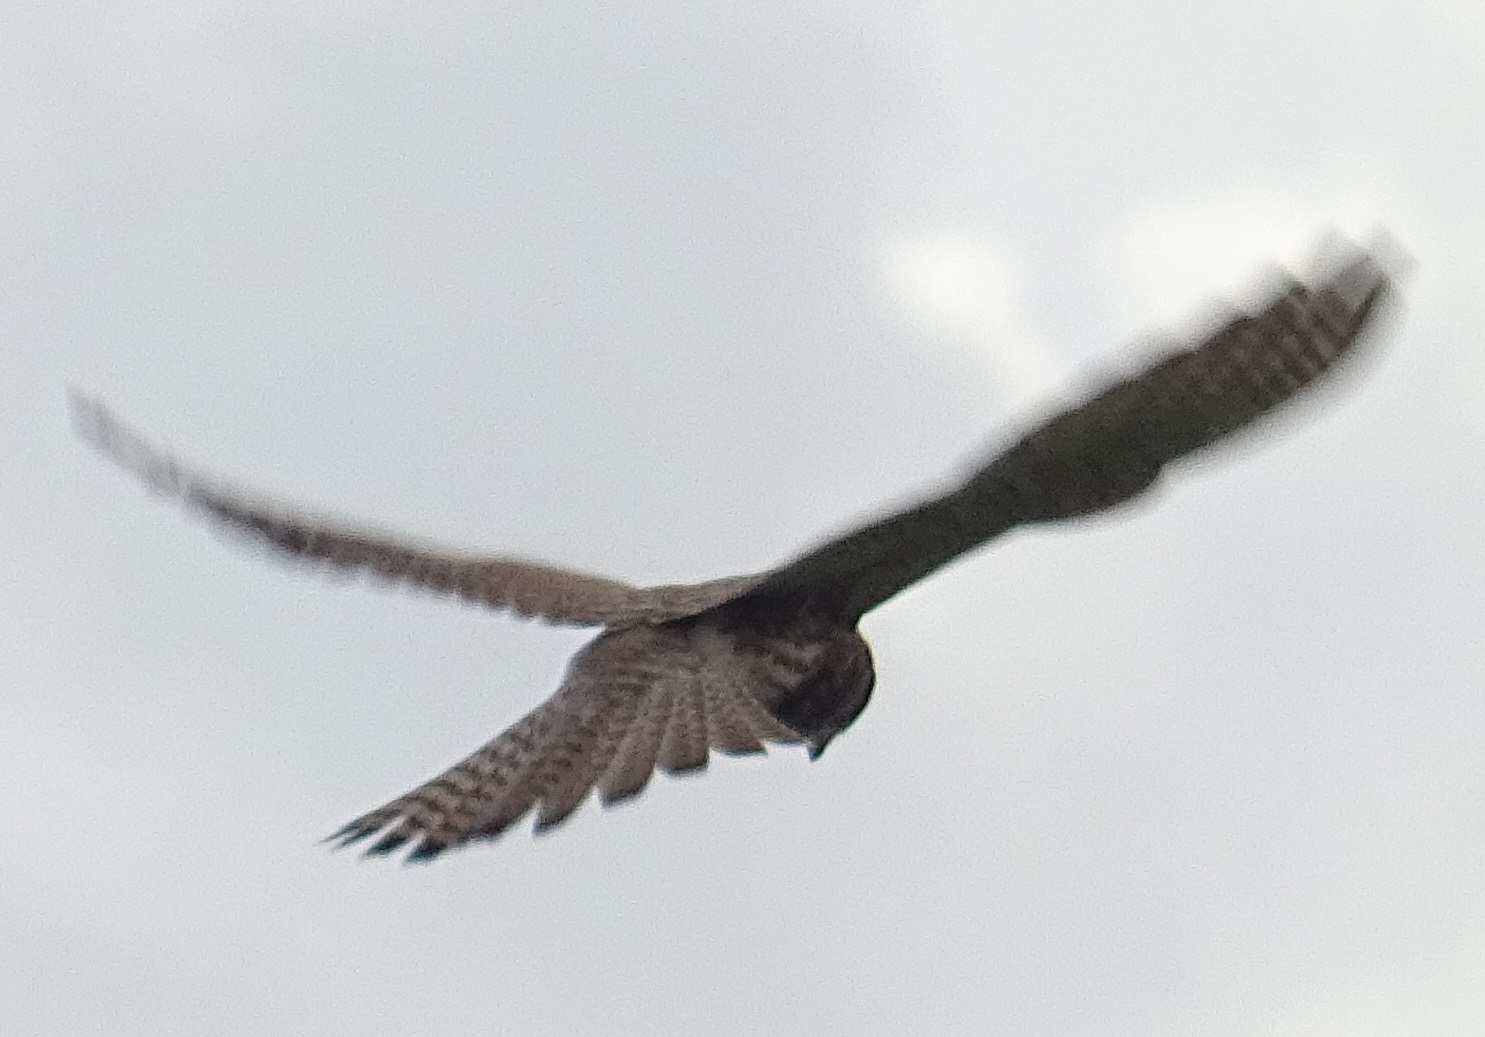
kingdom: Animalia
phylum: Chordata
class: Aves
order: Falconiformes
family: Falconidae
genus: Falco
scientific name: Falco tinnunculus
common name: Common kestrel
